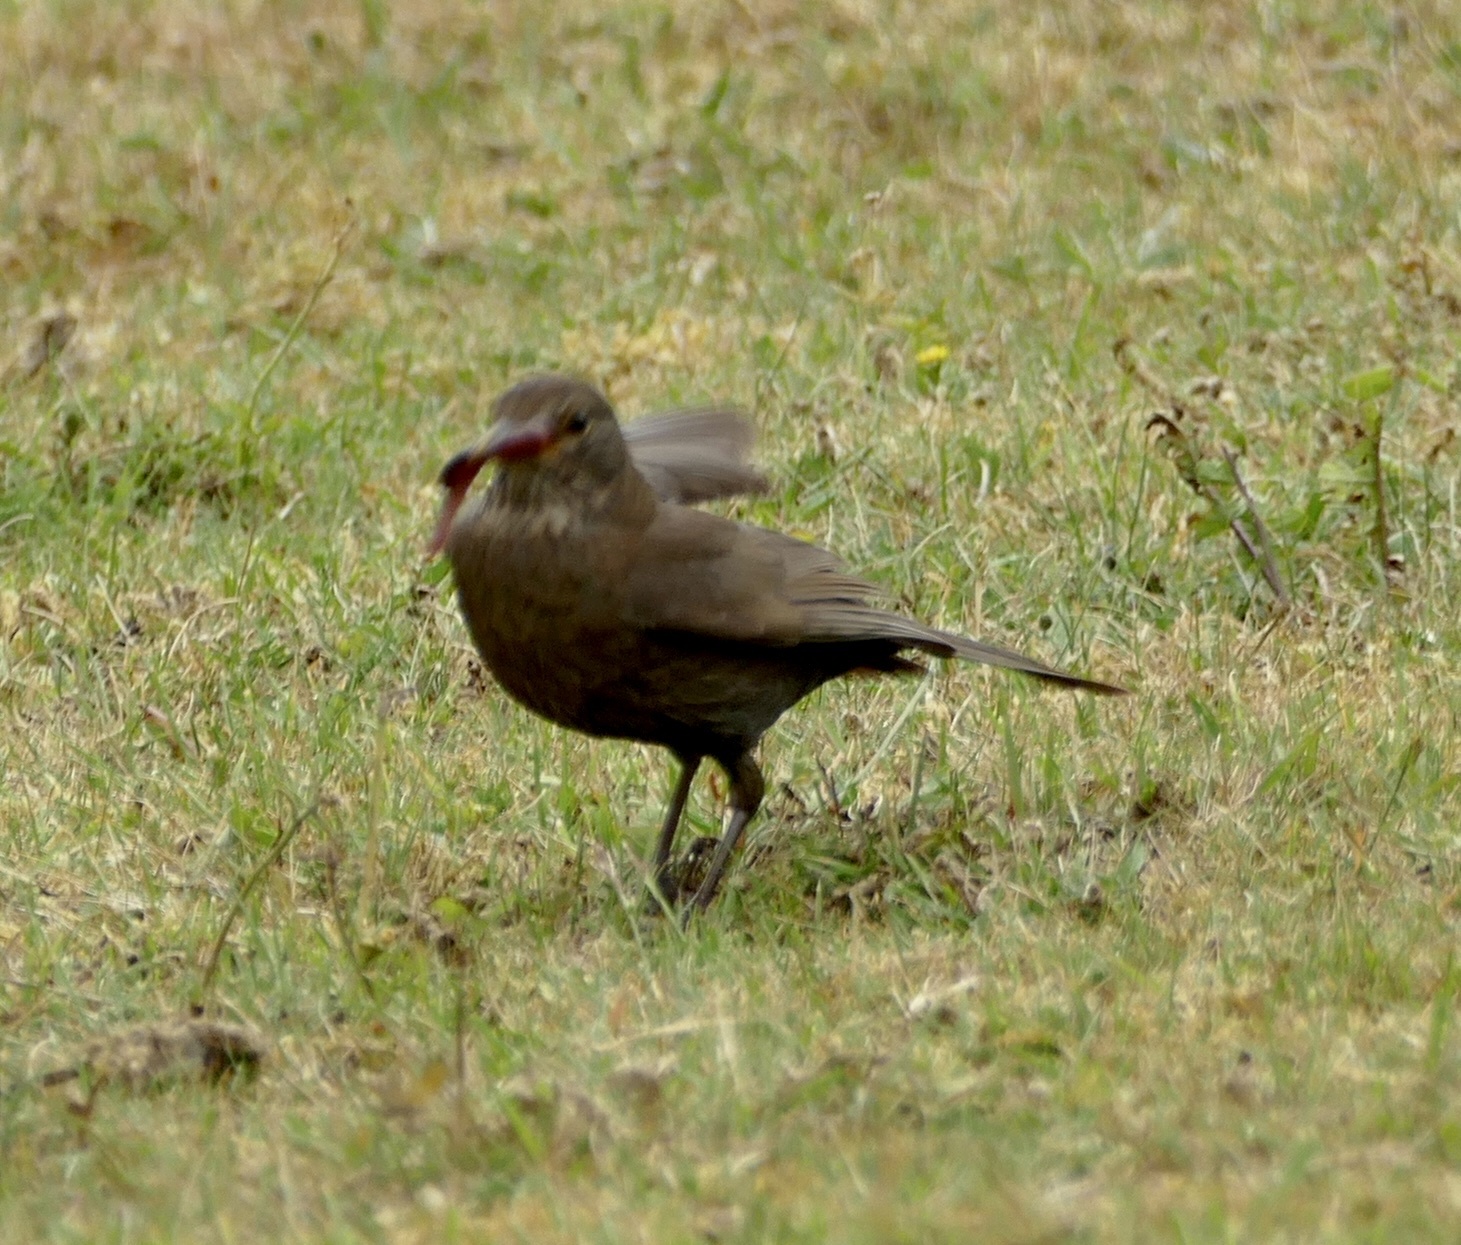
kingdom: Animalia
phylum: Chordata
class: Aves
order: Passeriformes
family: Turdidae
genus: Turdus
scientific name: Turdus merula
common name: Common blackbird
